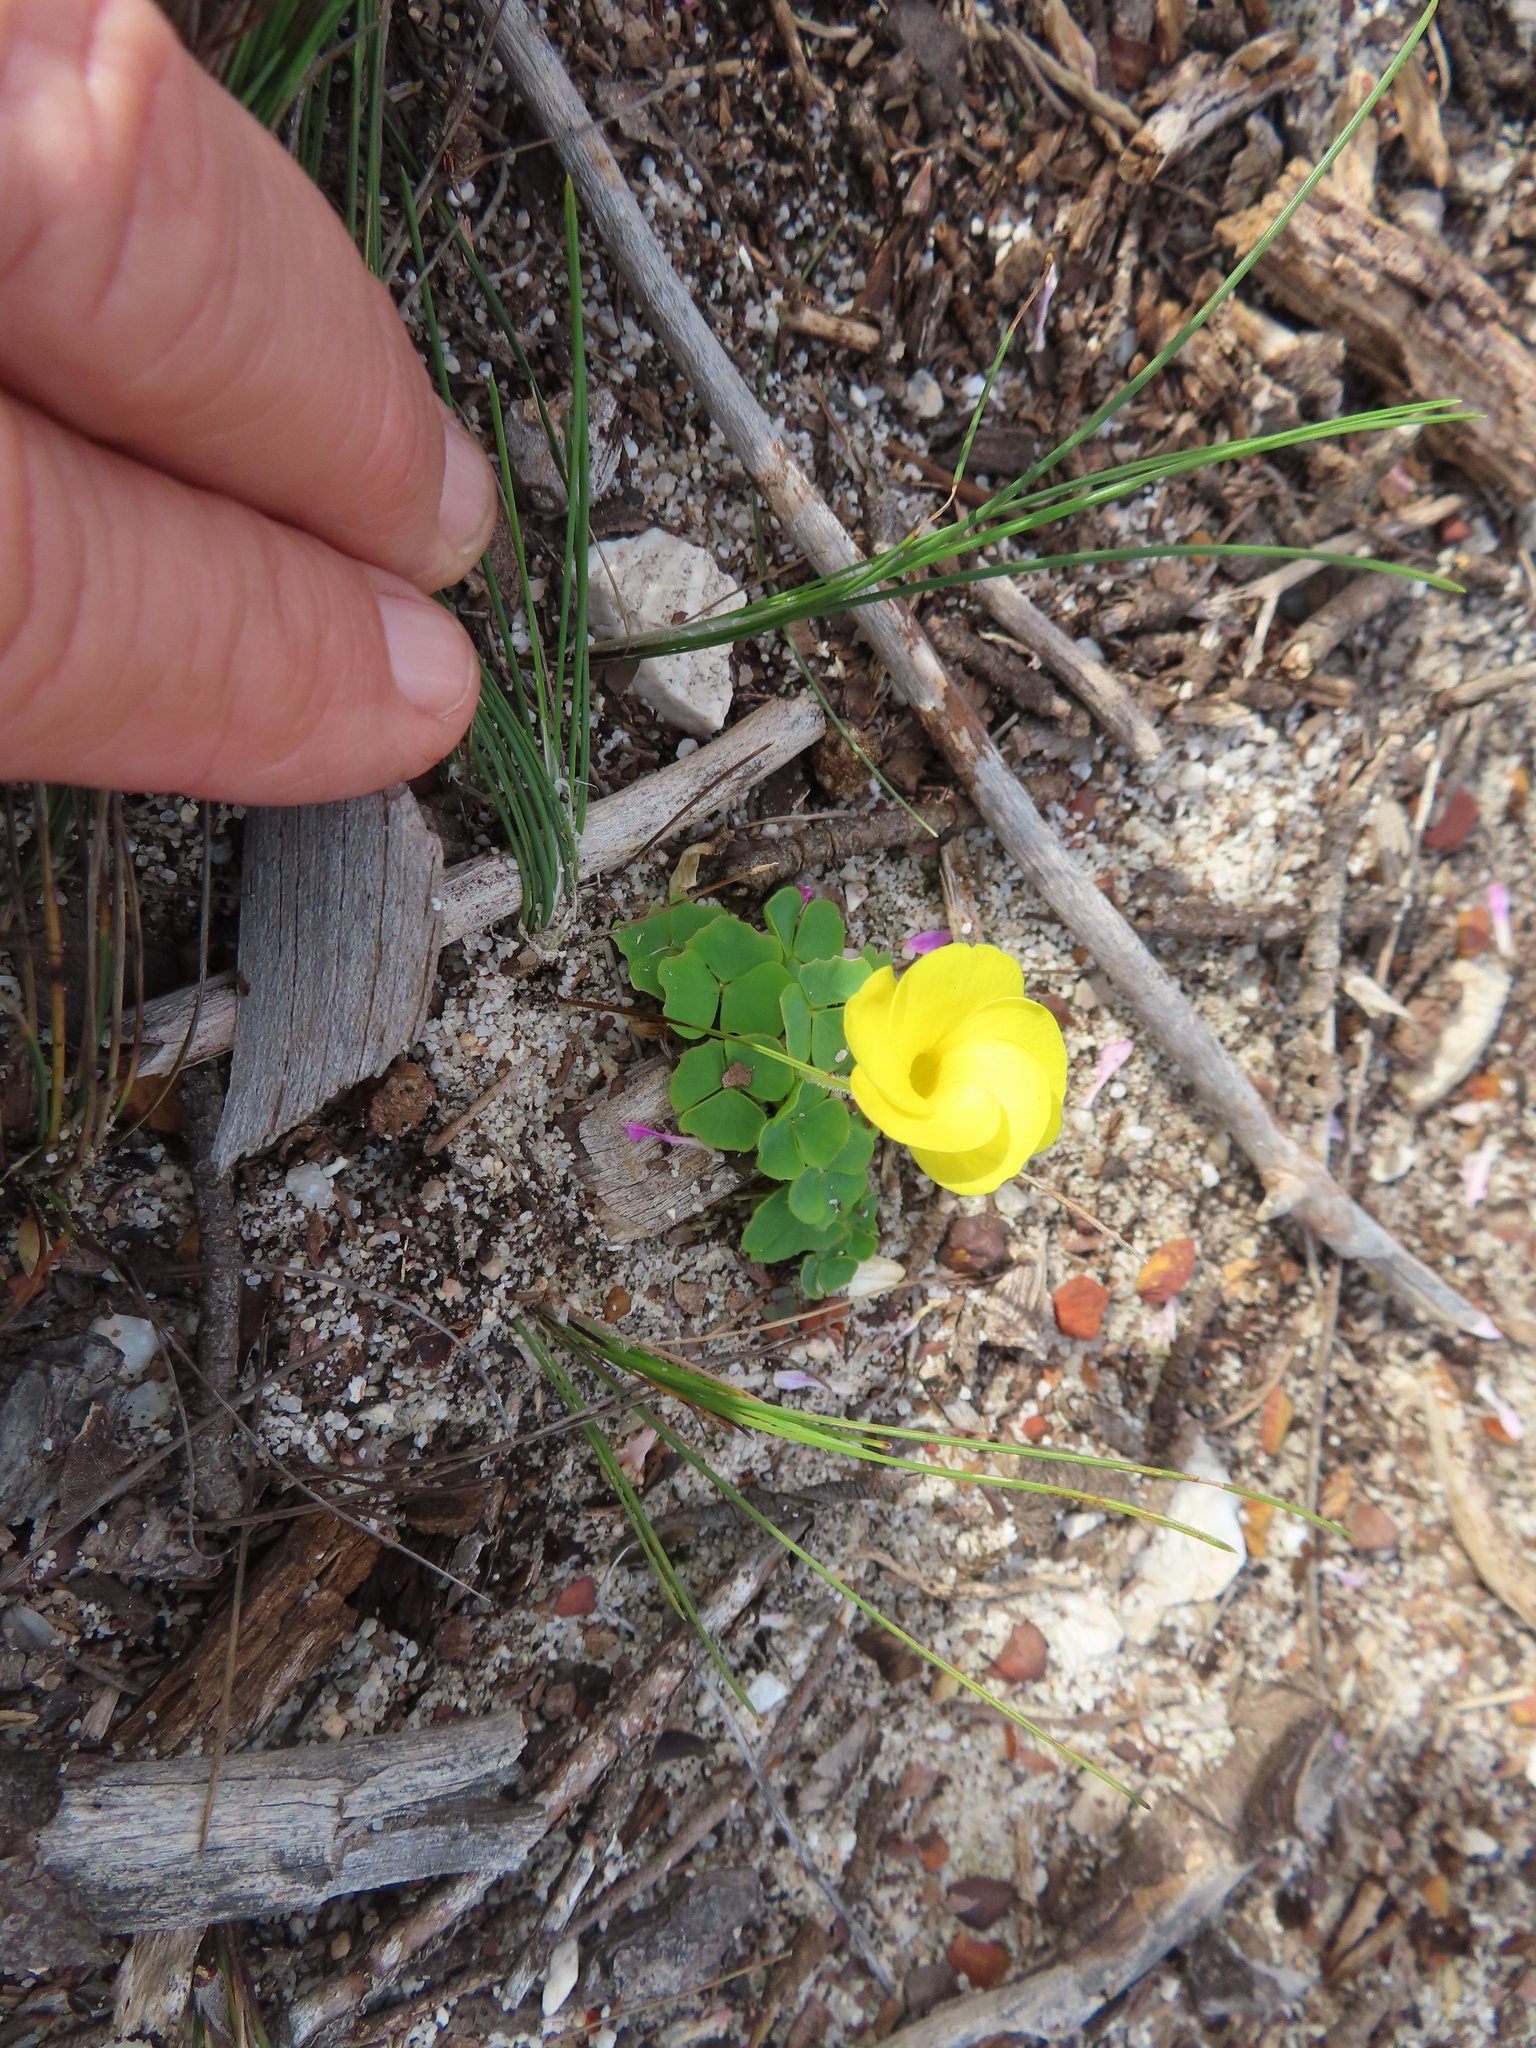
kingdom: Plantae
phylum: Tracheophyta
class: Magnoliopsida
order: Oxalidales
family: Oxalidaceae
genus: Oxalis
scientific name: Oxalis luteola
